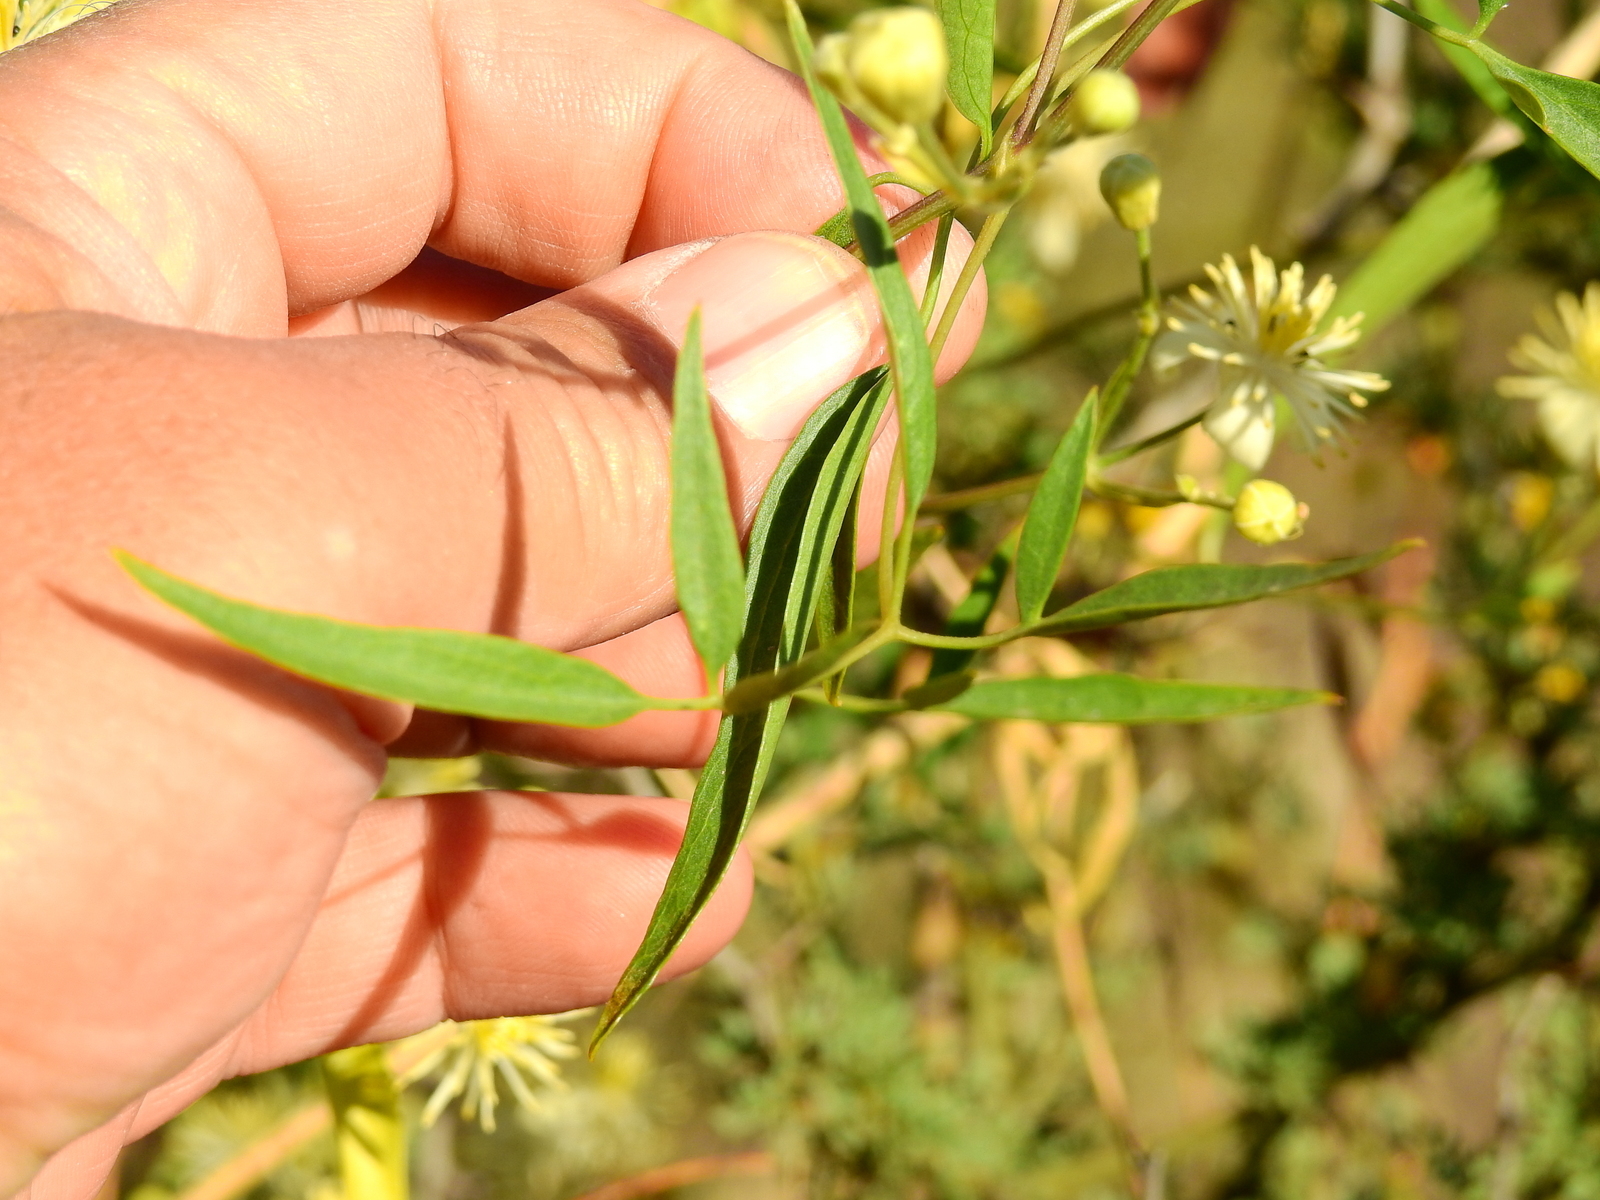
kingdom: Plantae
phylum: Tracheophyta
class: Magnoliopsida
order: Ranunculales
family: Ranunculaceae
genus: Clematis
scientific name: Clematis montevidensis
